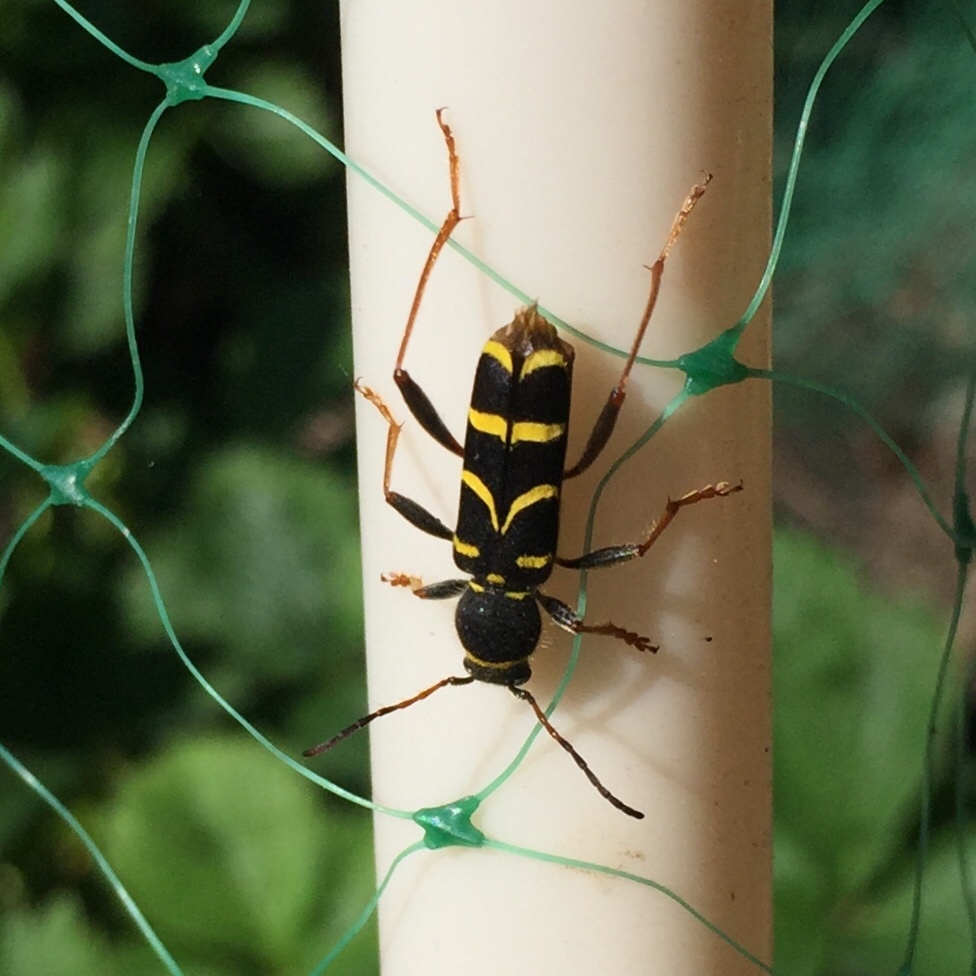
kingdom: Animalia
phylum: Arthropoda
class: Insecta
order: Coleoptera
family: Cerambycidae
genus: Clytus
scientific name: Clytus arietis
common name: Wasp beetle
